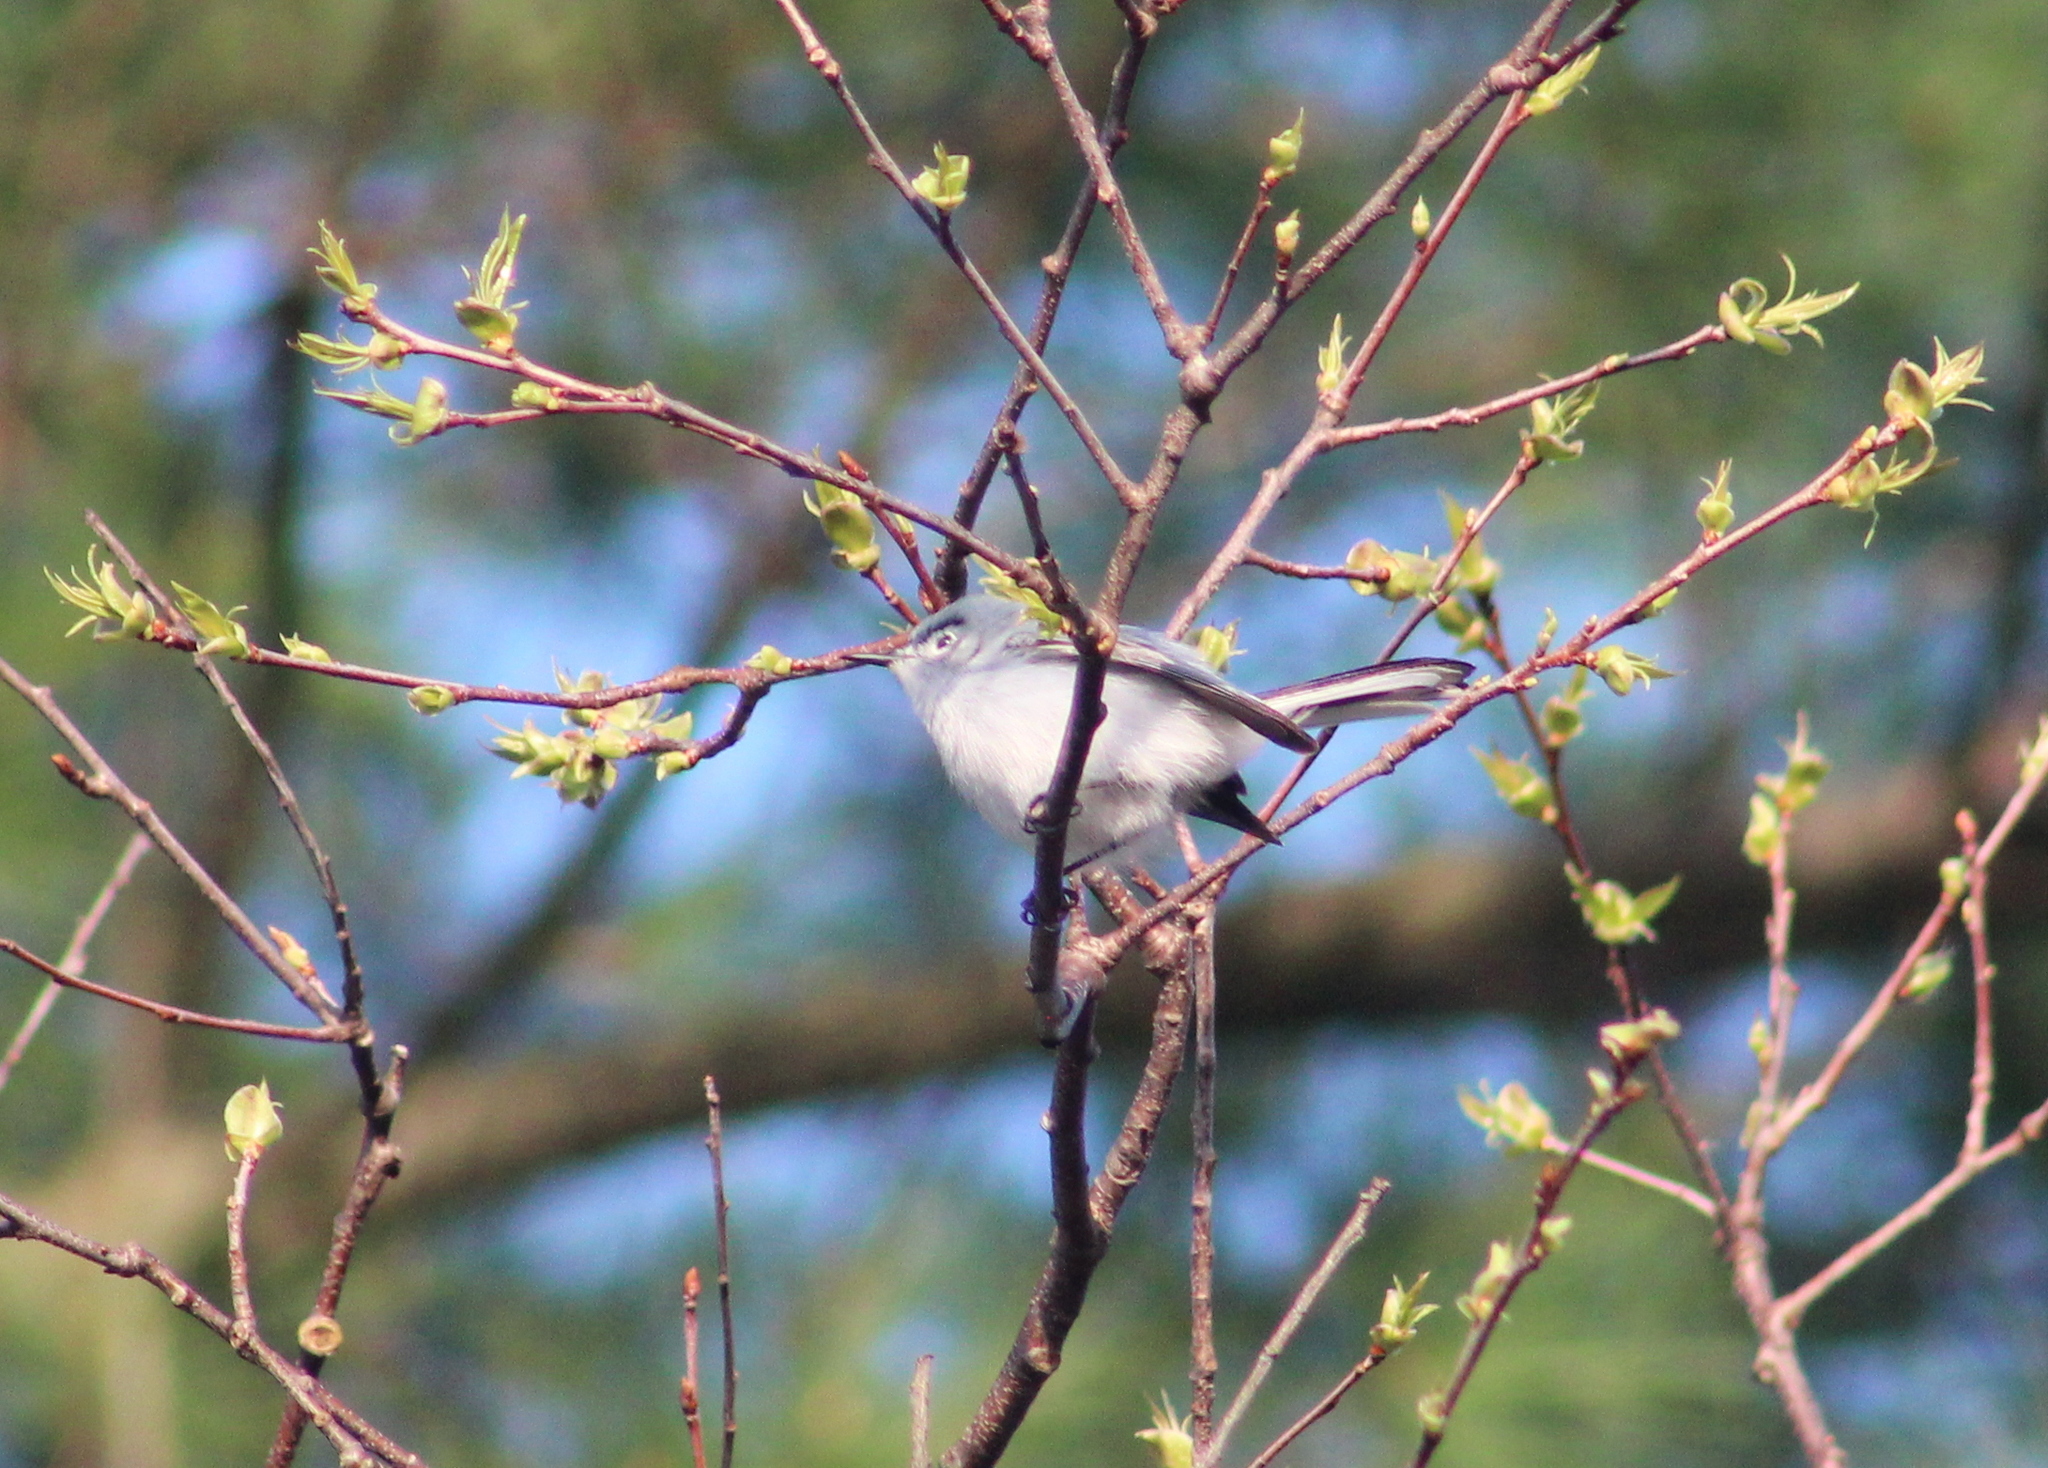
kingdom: Animalia
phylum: Chordata
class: Aves
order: Passeriformes
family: Polioptilidae
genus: Polioptila
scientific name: Polioptila caerulea
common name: Blue-gray gnatcatcher
